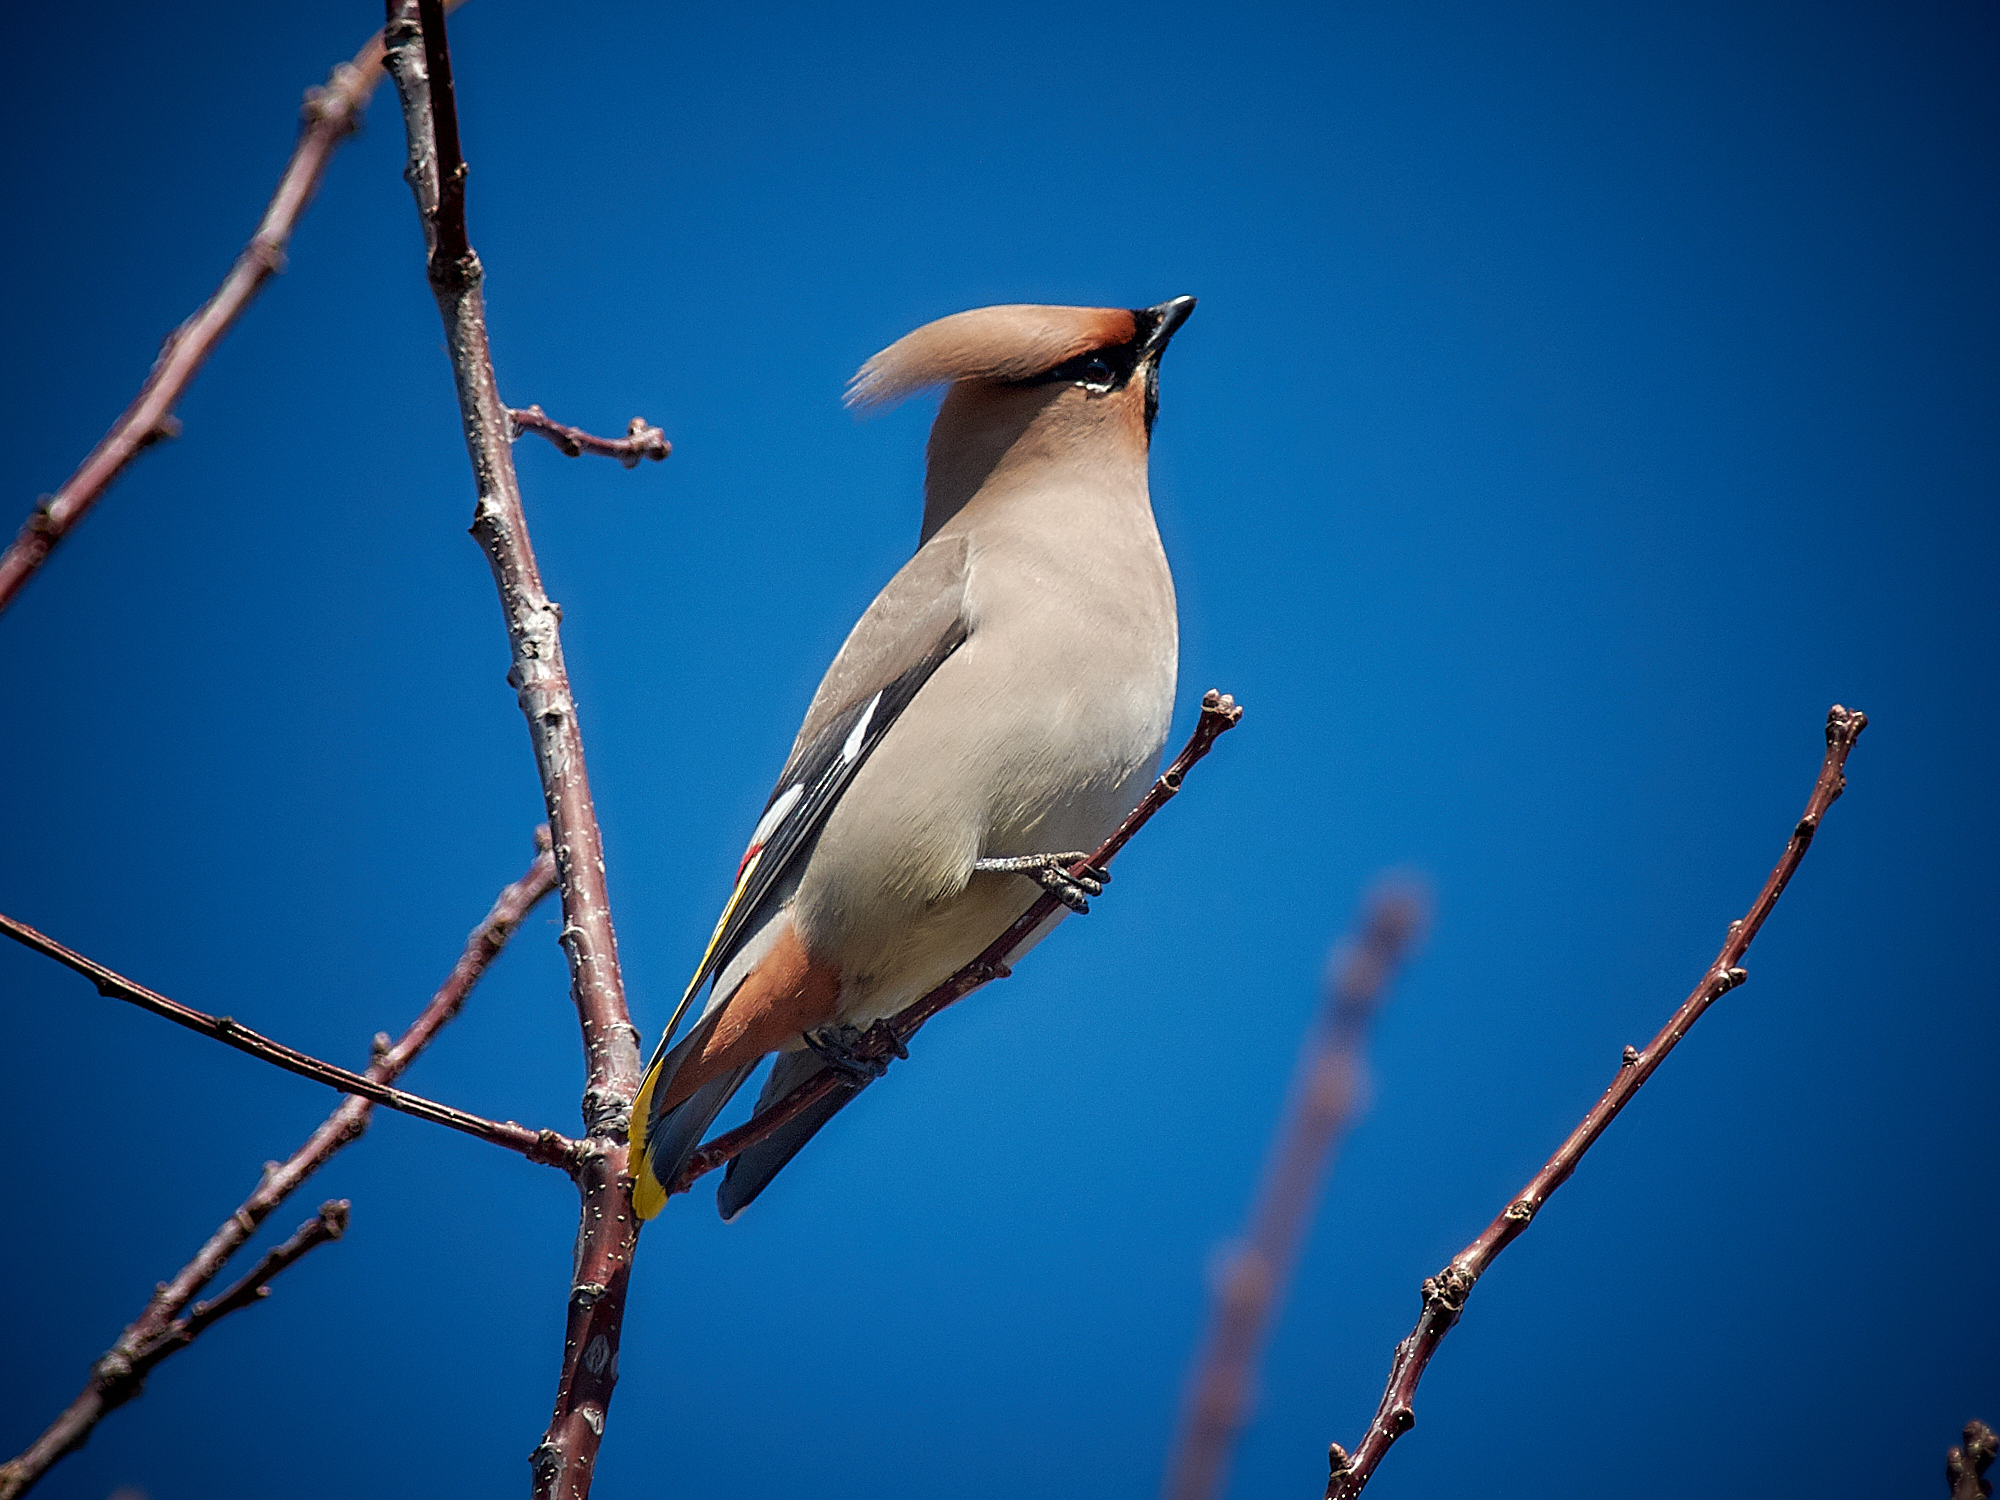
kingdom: Animalia
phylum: Chordata
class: Aves
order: Passeriformes
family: Bombycillidae
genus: Bombycilla
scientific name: Bombycilla garrulus
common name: Bohemian waxwing
